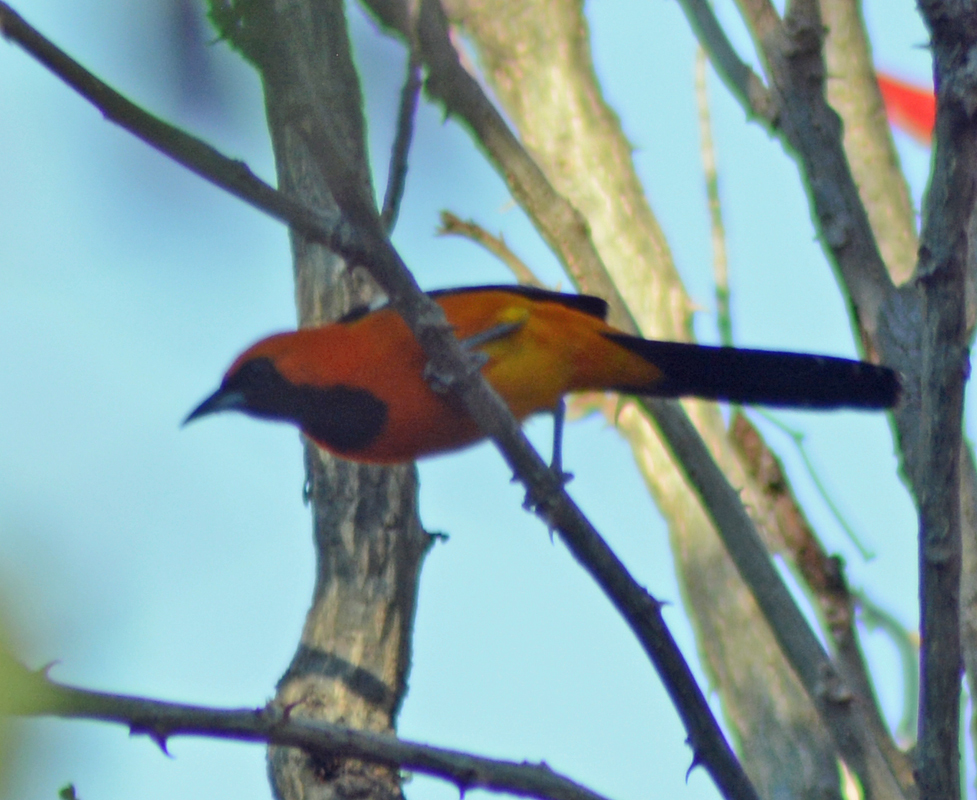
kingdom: Animalia
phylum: Chordata
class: Aves
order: Passeriformes
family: Icteridae
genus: Icterus
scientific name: Icterus cucullatus
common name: Hooded oriole
